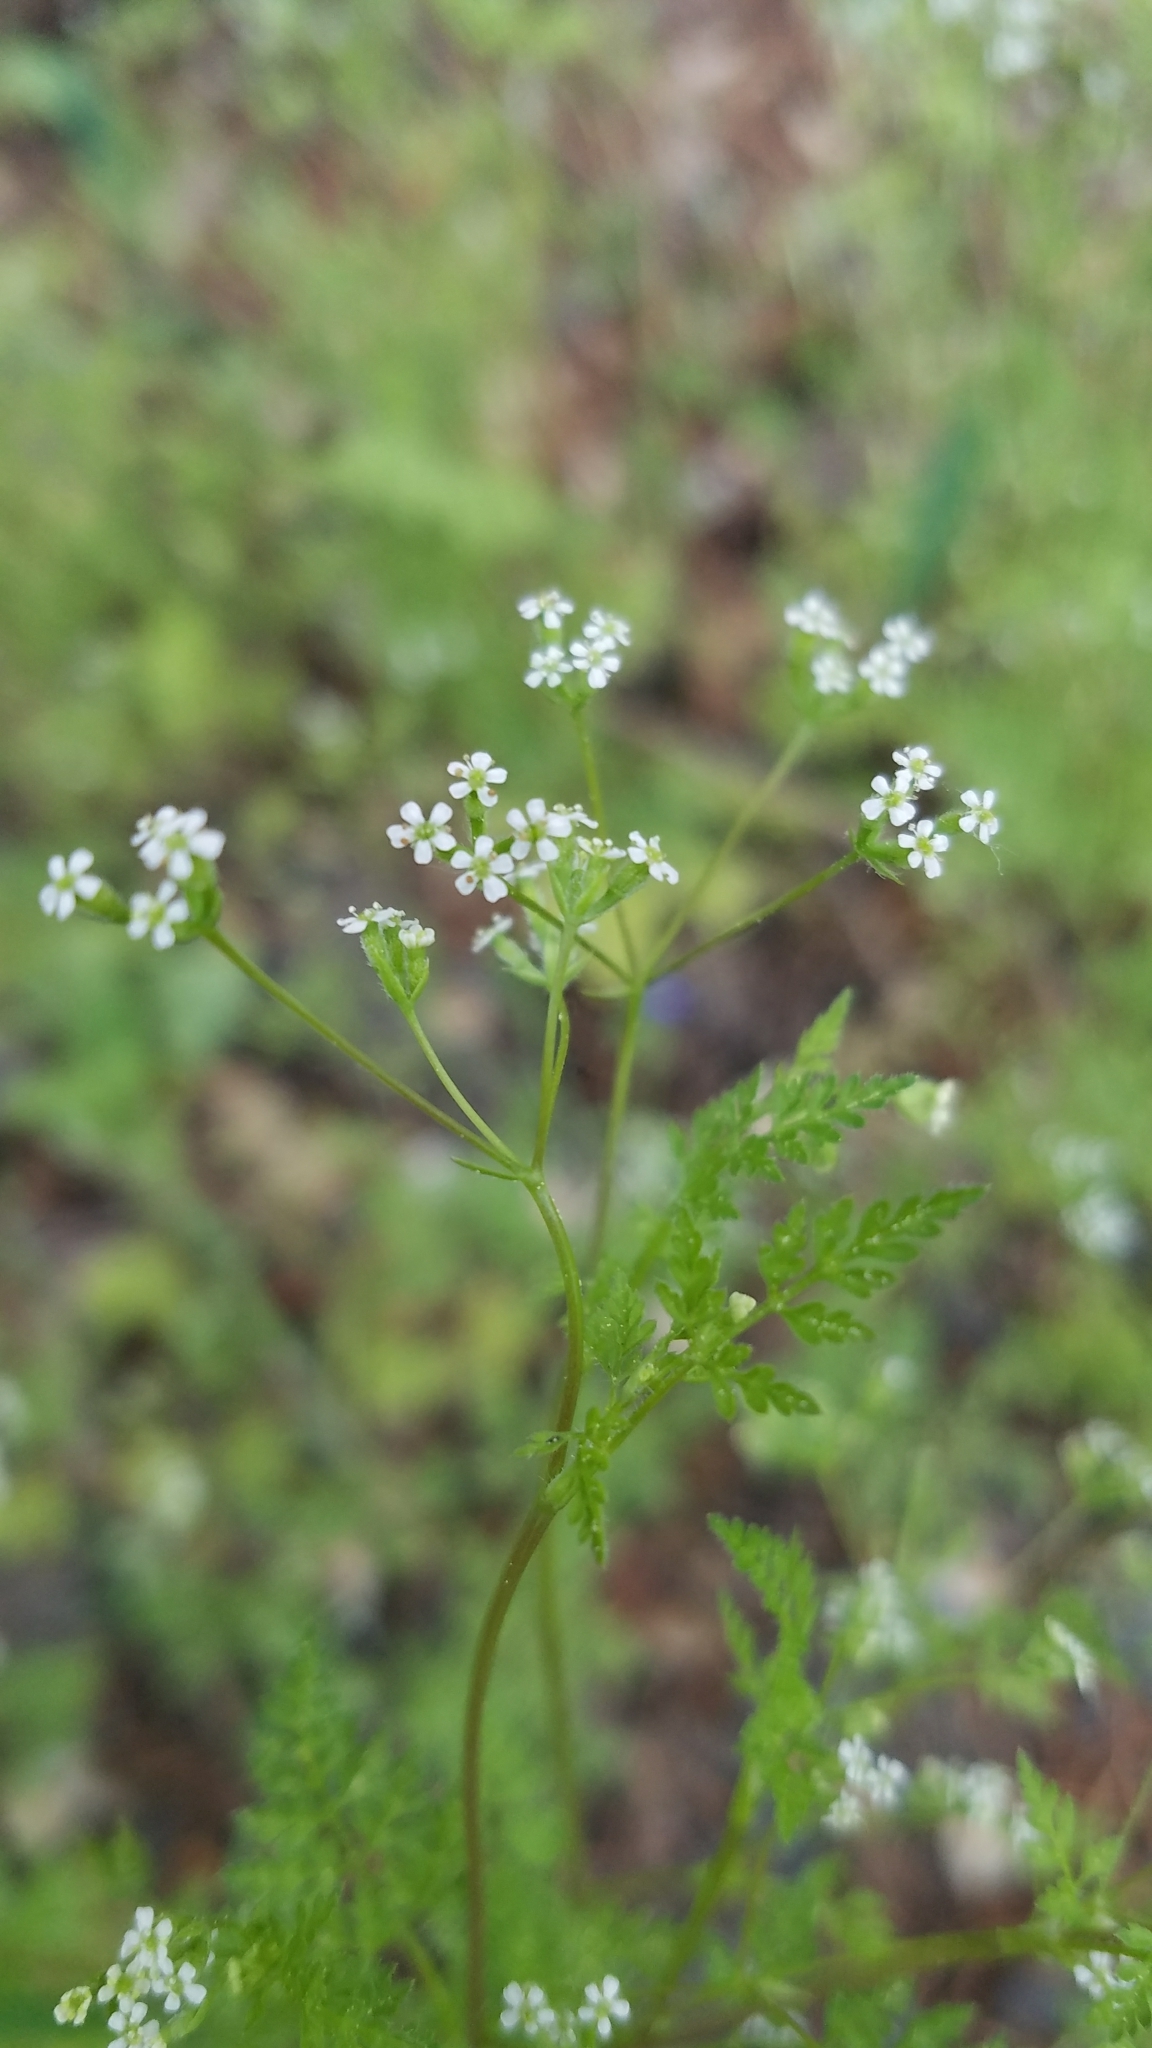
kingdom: Plantae
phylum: Tracheophyta
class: Magnoliopsida
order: Apiales
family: Apiaceae
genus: Anthriscus
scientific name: Anthriscus caucalis
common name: Bur chervil
